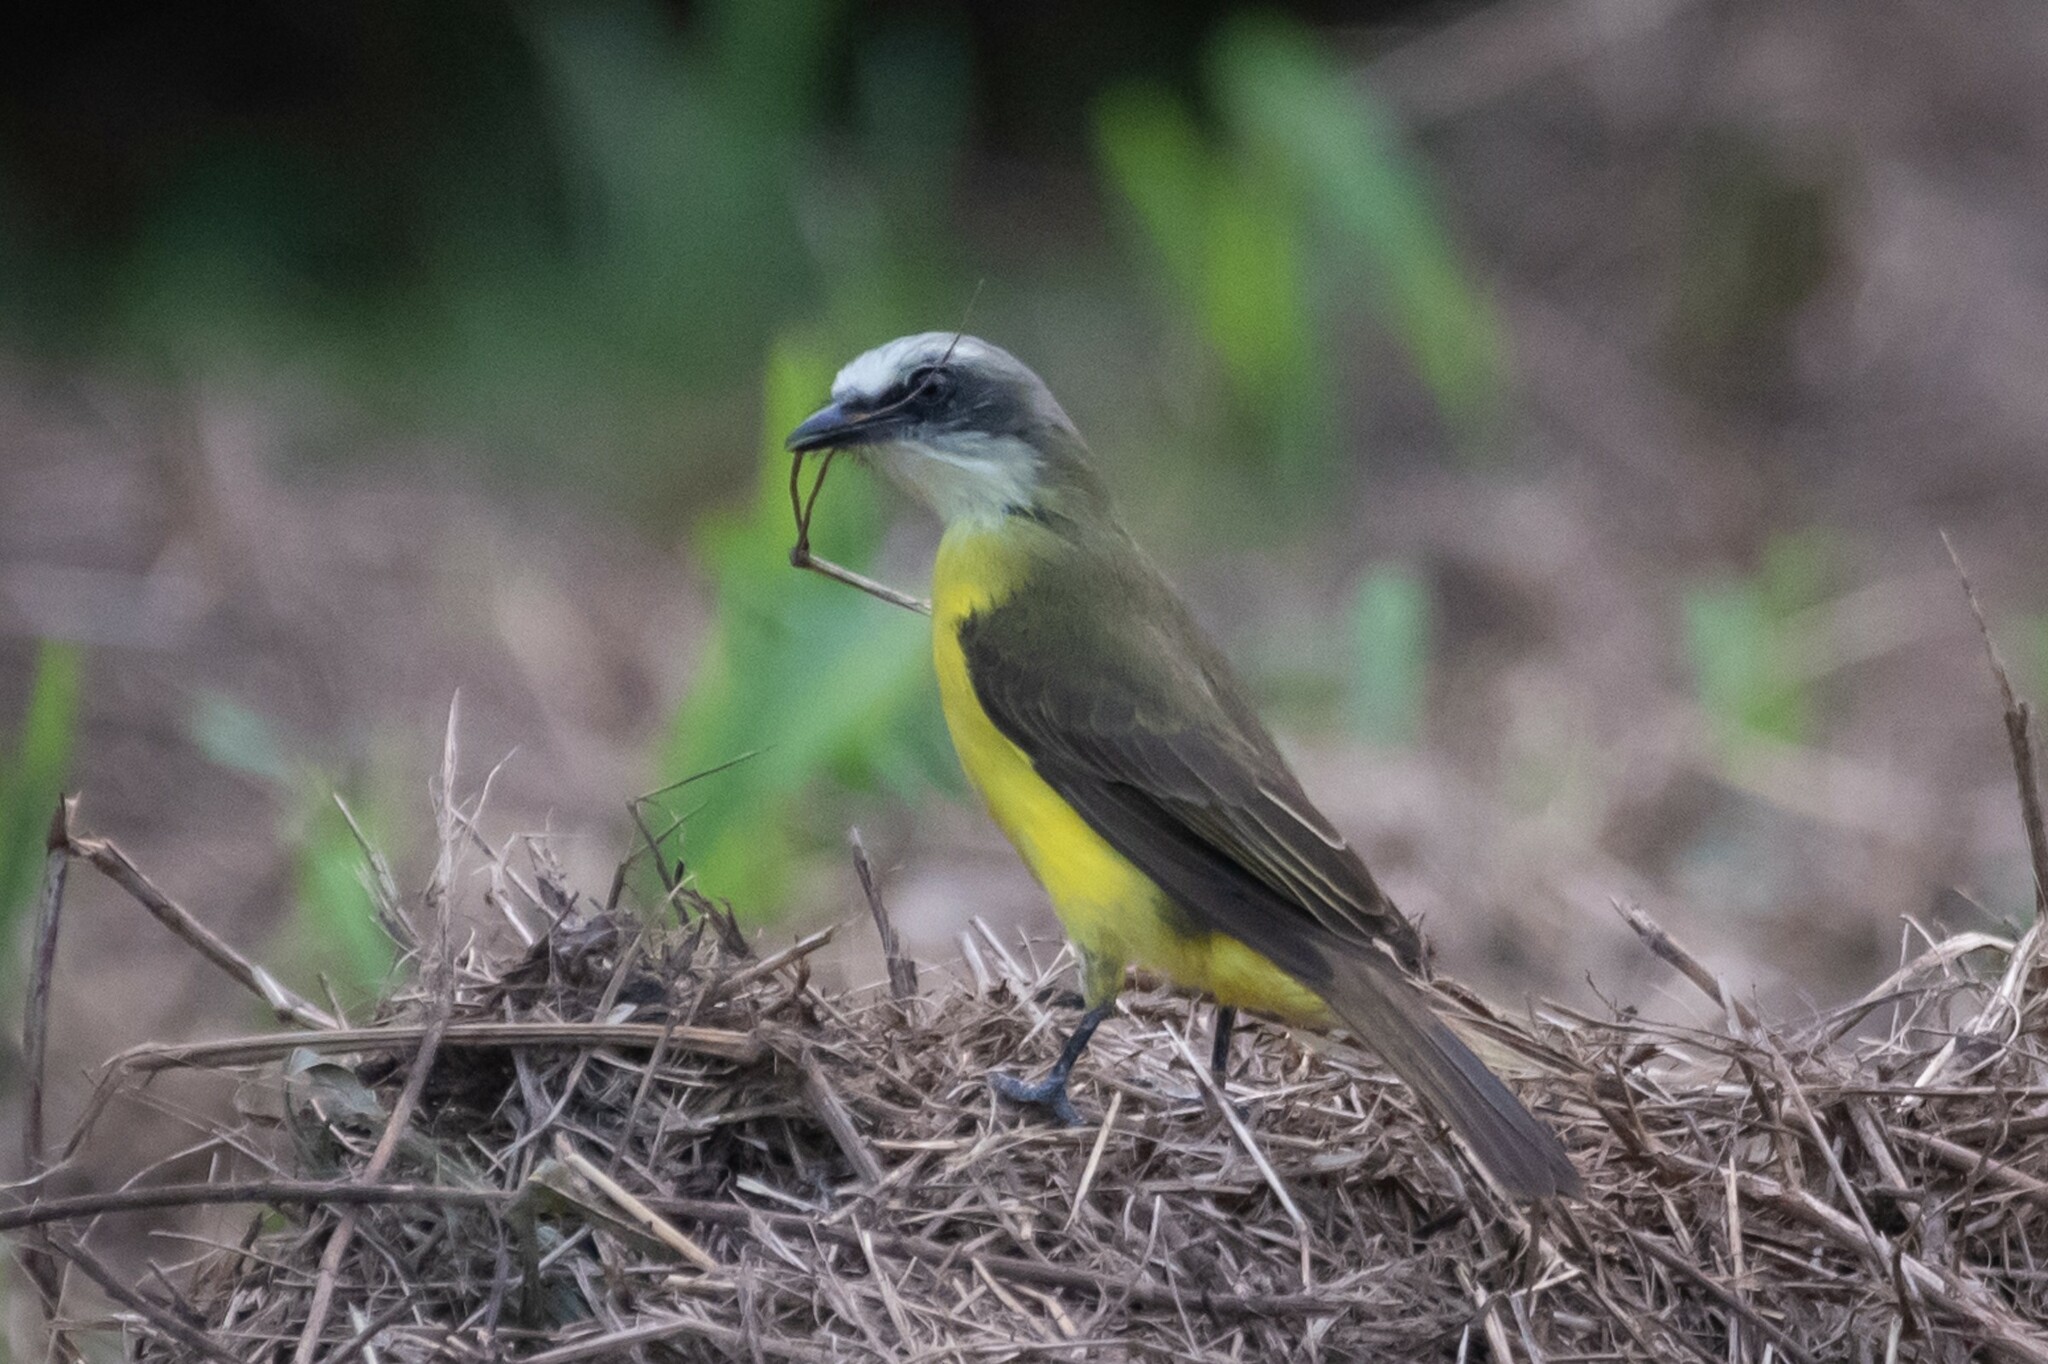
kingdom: Animalia
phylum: Chordata
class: Aves
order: Passeriformes
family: Tyrannidae
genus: Myiozetetes
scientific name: Myiozetetes granadensis
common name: Gray-capped flycatcher
